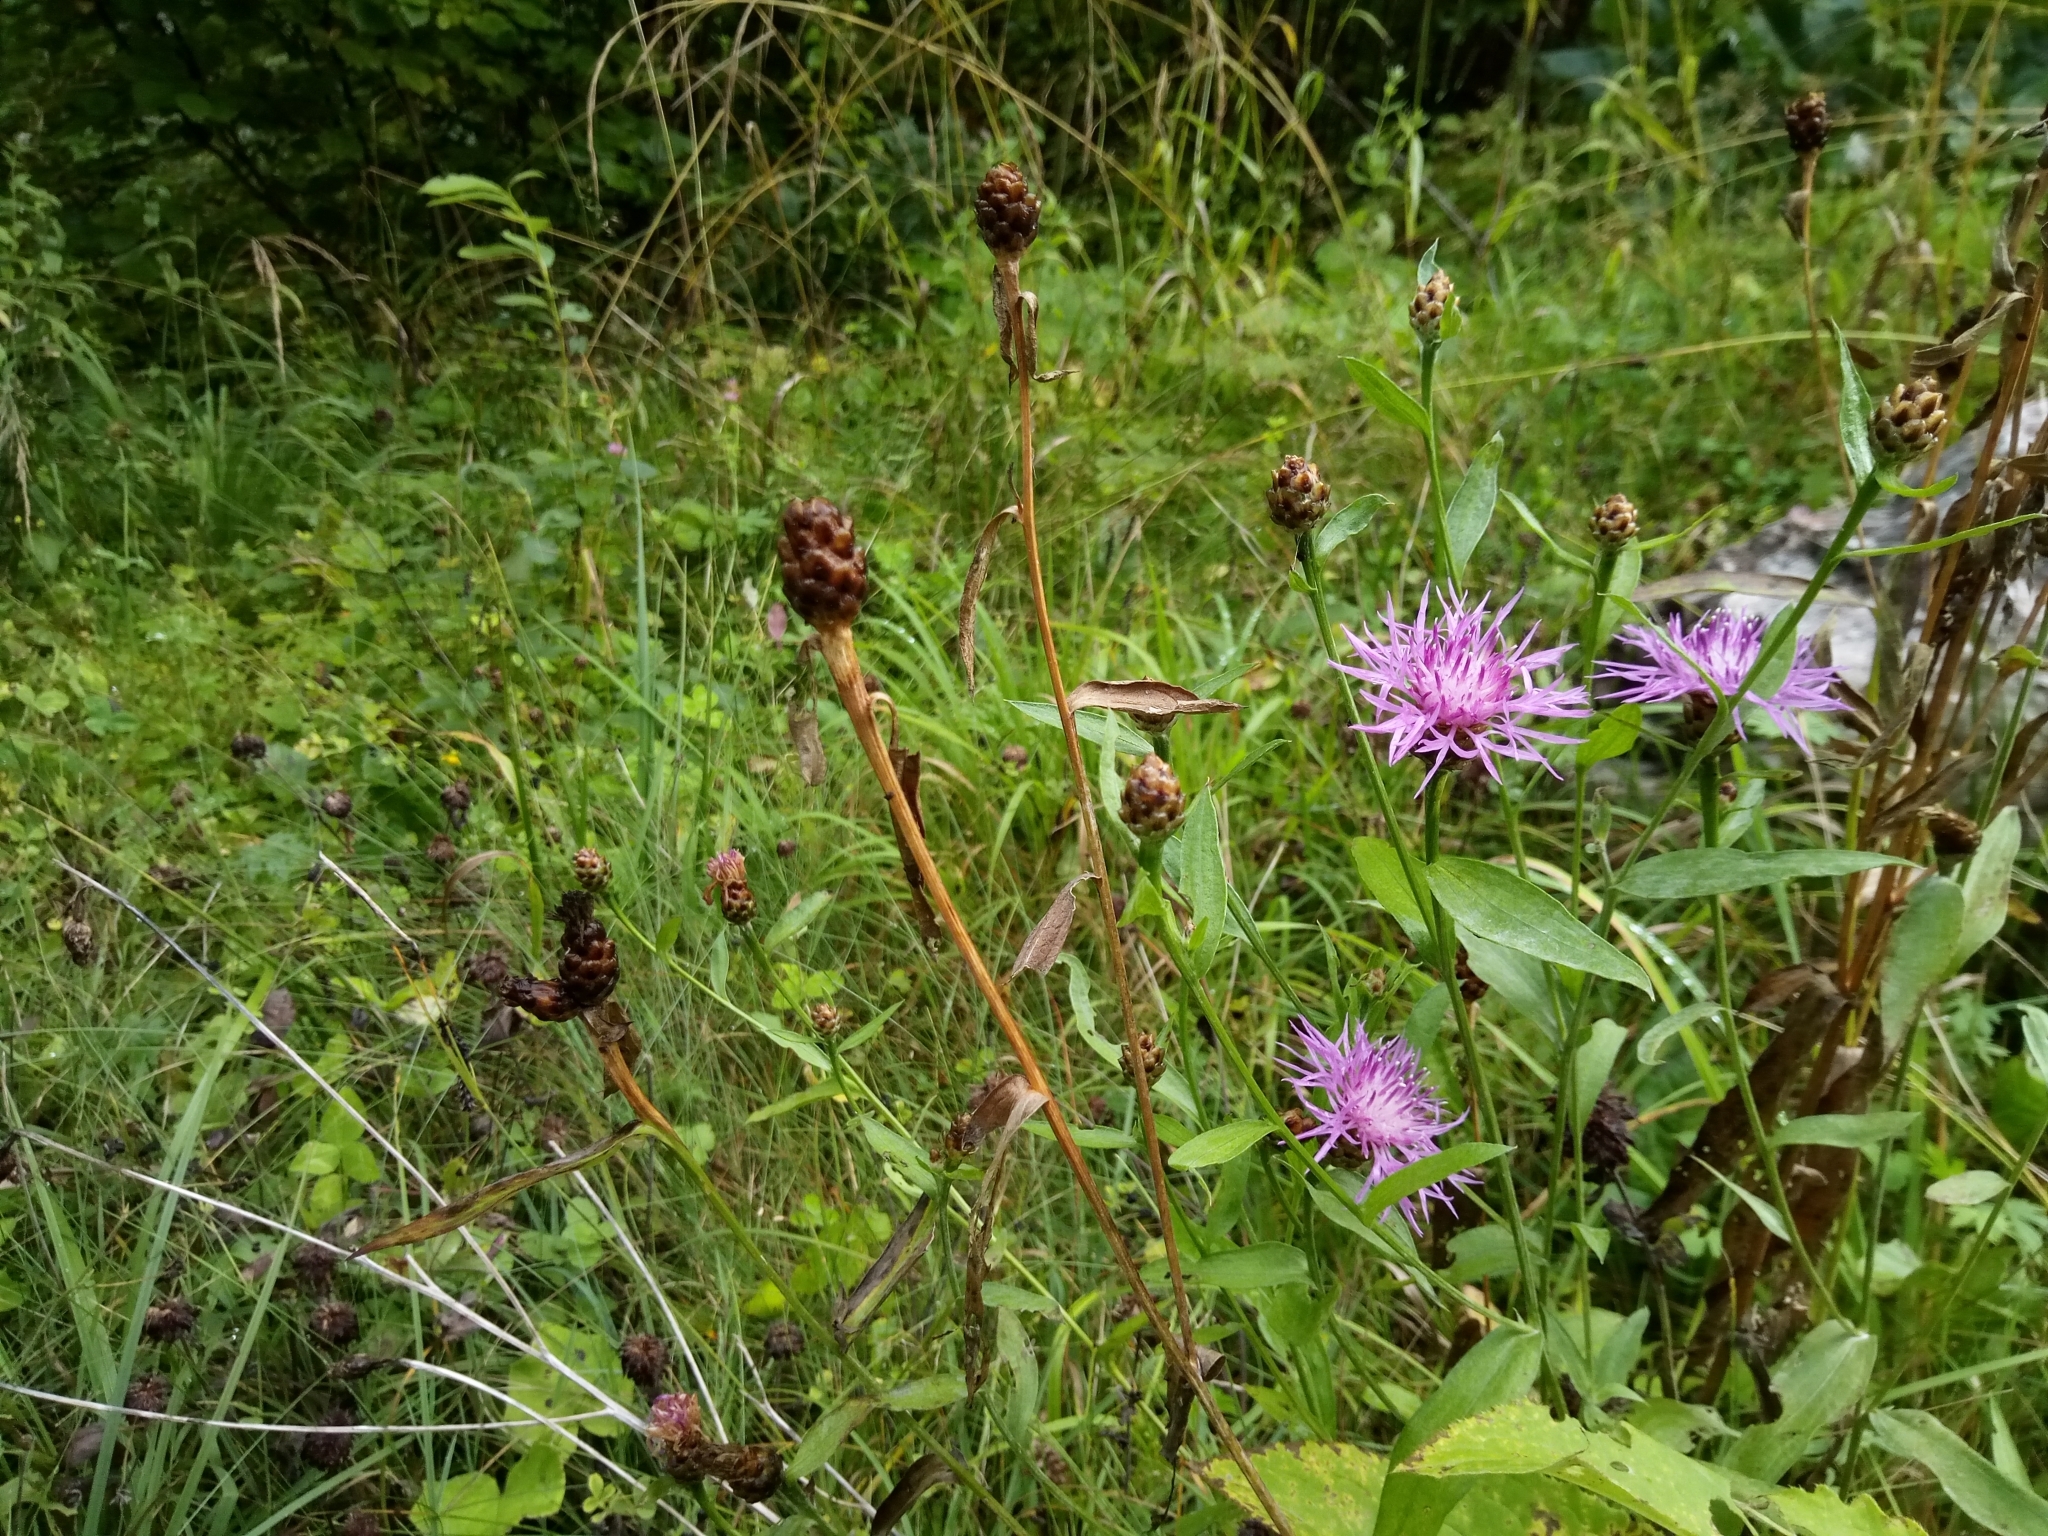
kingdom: Plantae
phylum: Tracheophyta
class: Magnoliopsida
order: Asterales
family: Asteraceae
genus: Centaurea
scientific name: Centaurea jacea
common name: Brown knapweed
